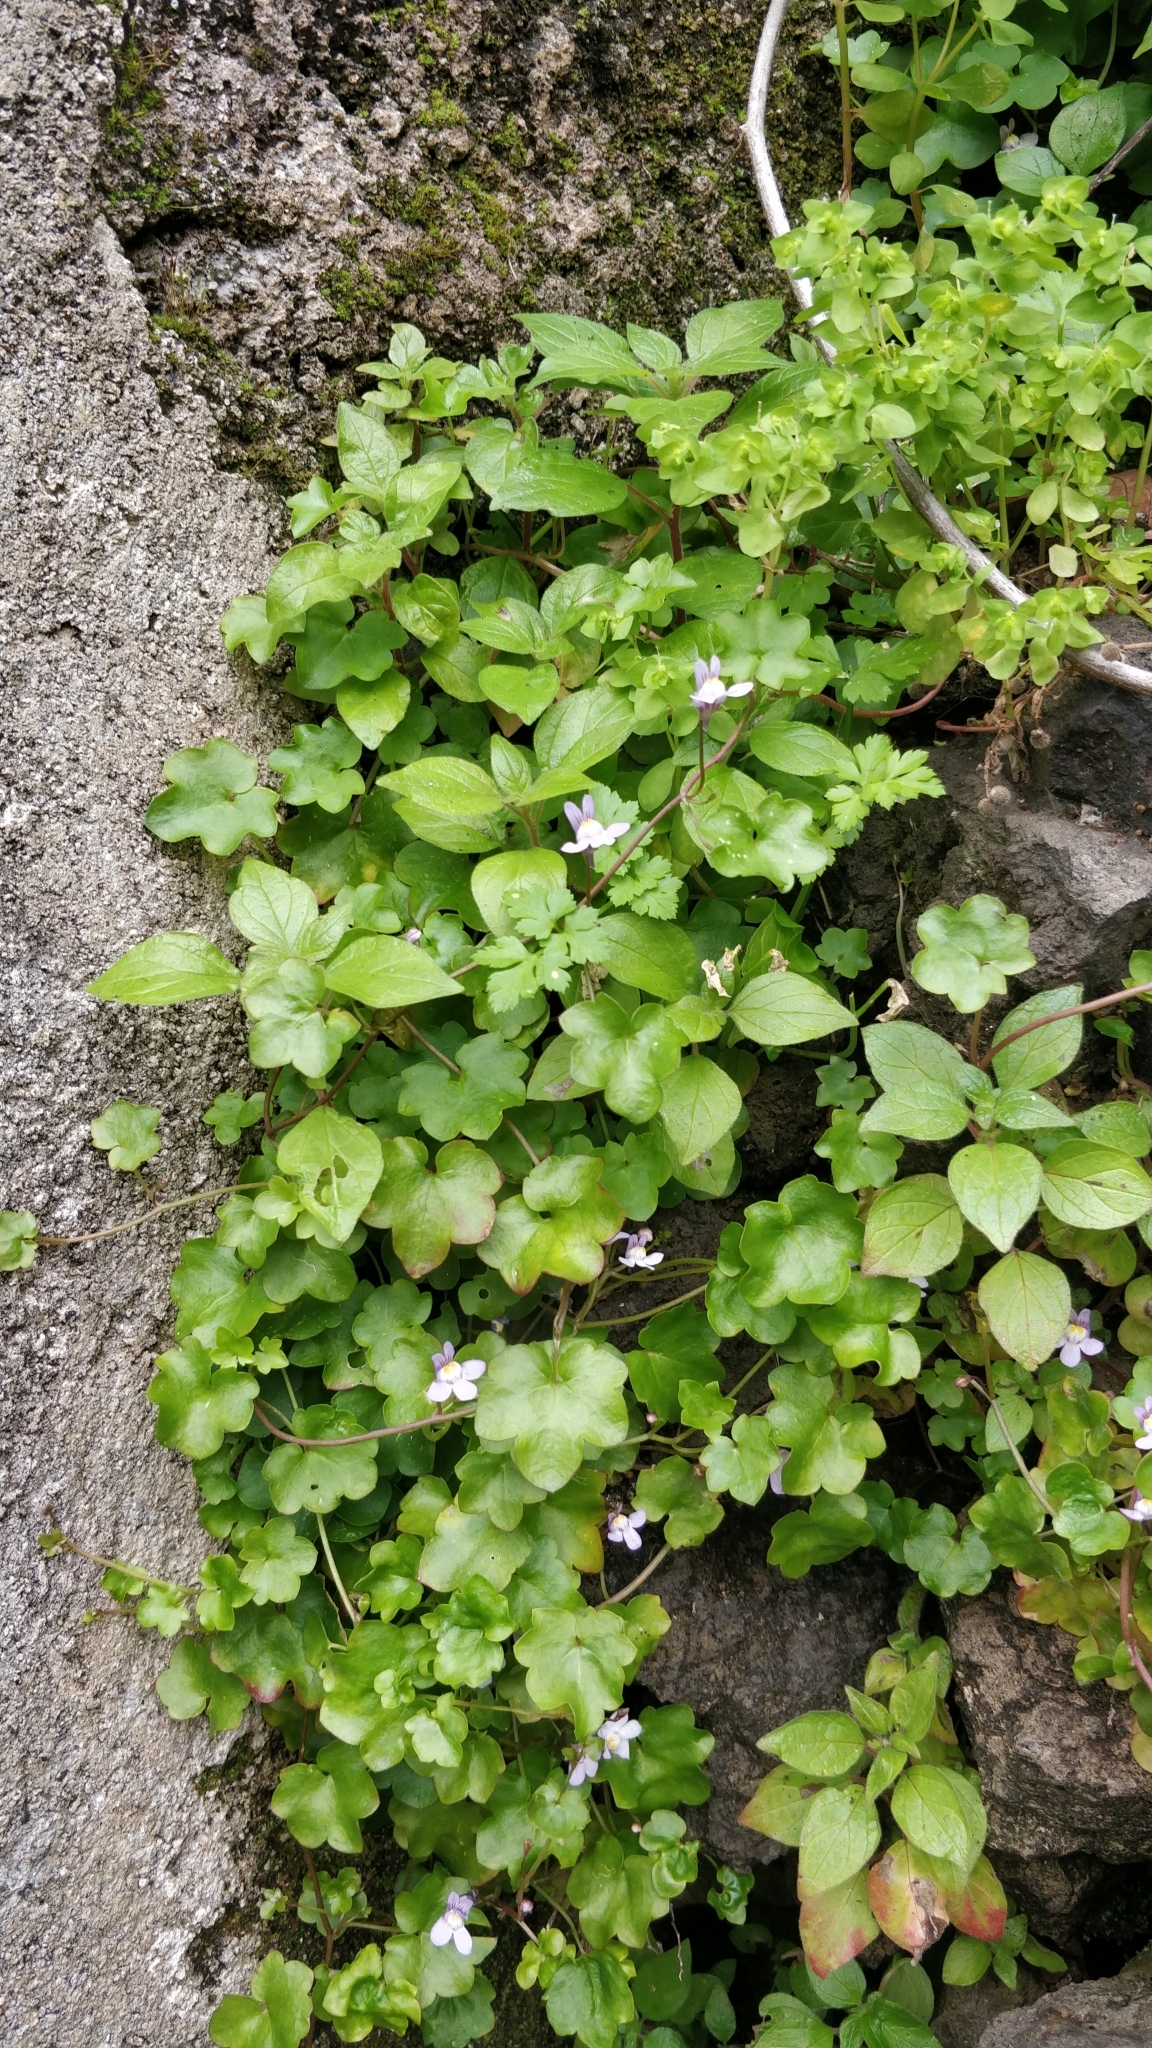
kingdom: Plantae
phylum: Tracheophyta
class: Magnoliopsida
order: Lamiales
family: Plantaginaceae
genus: Cymbalaria
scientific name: Cymbalaria muralis
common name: Ivy-leaved toadflax
